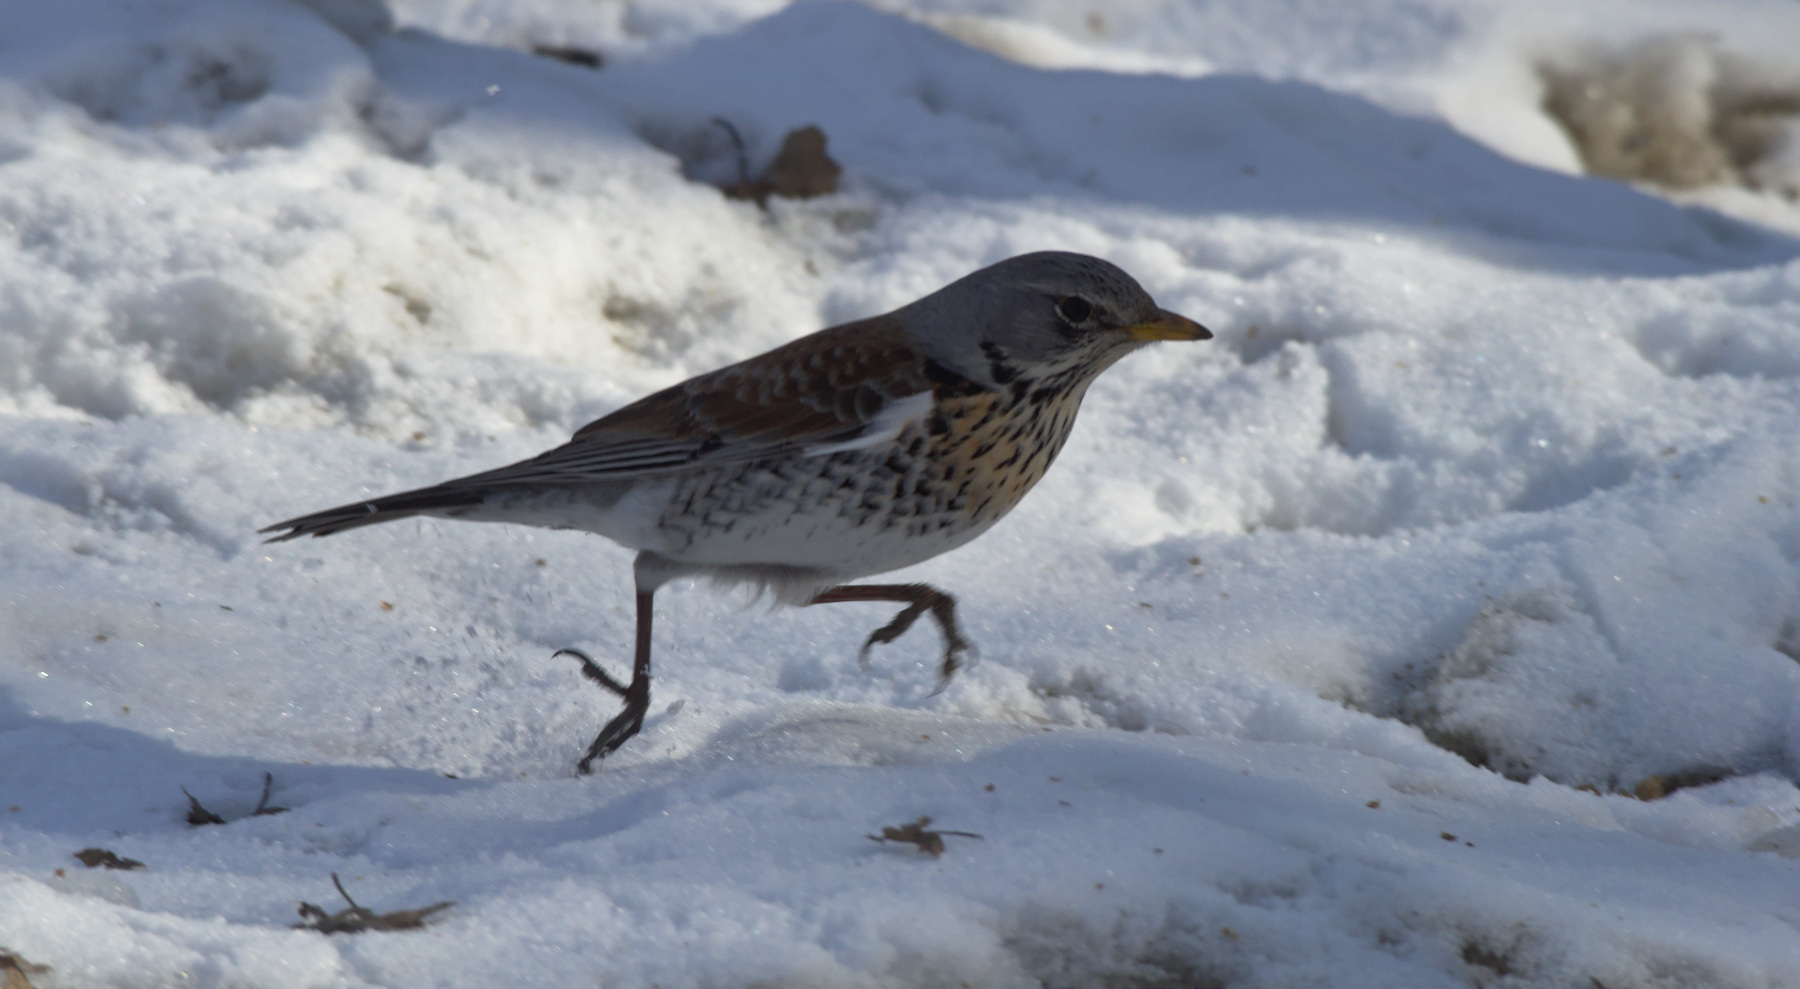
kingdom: Animalia
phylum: Chordata
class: Aves
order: Passeriformes
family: Turdidae
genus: Turdus
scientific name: Turdus pilaris
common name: Fieldfare
